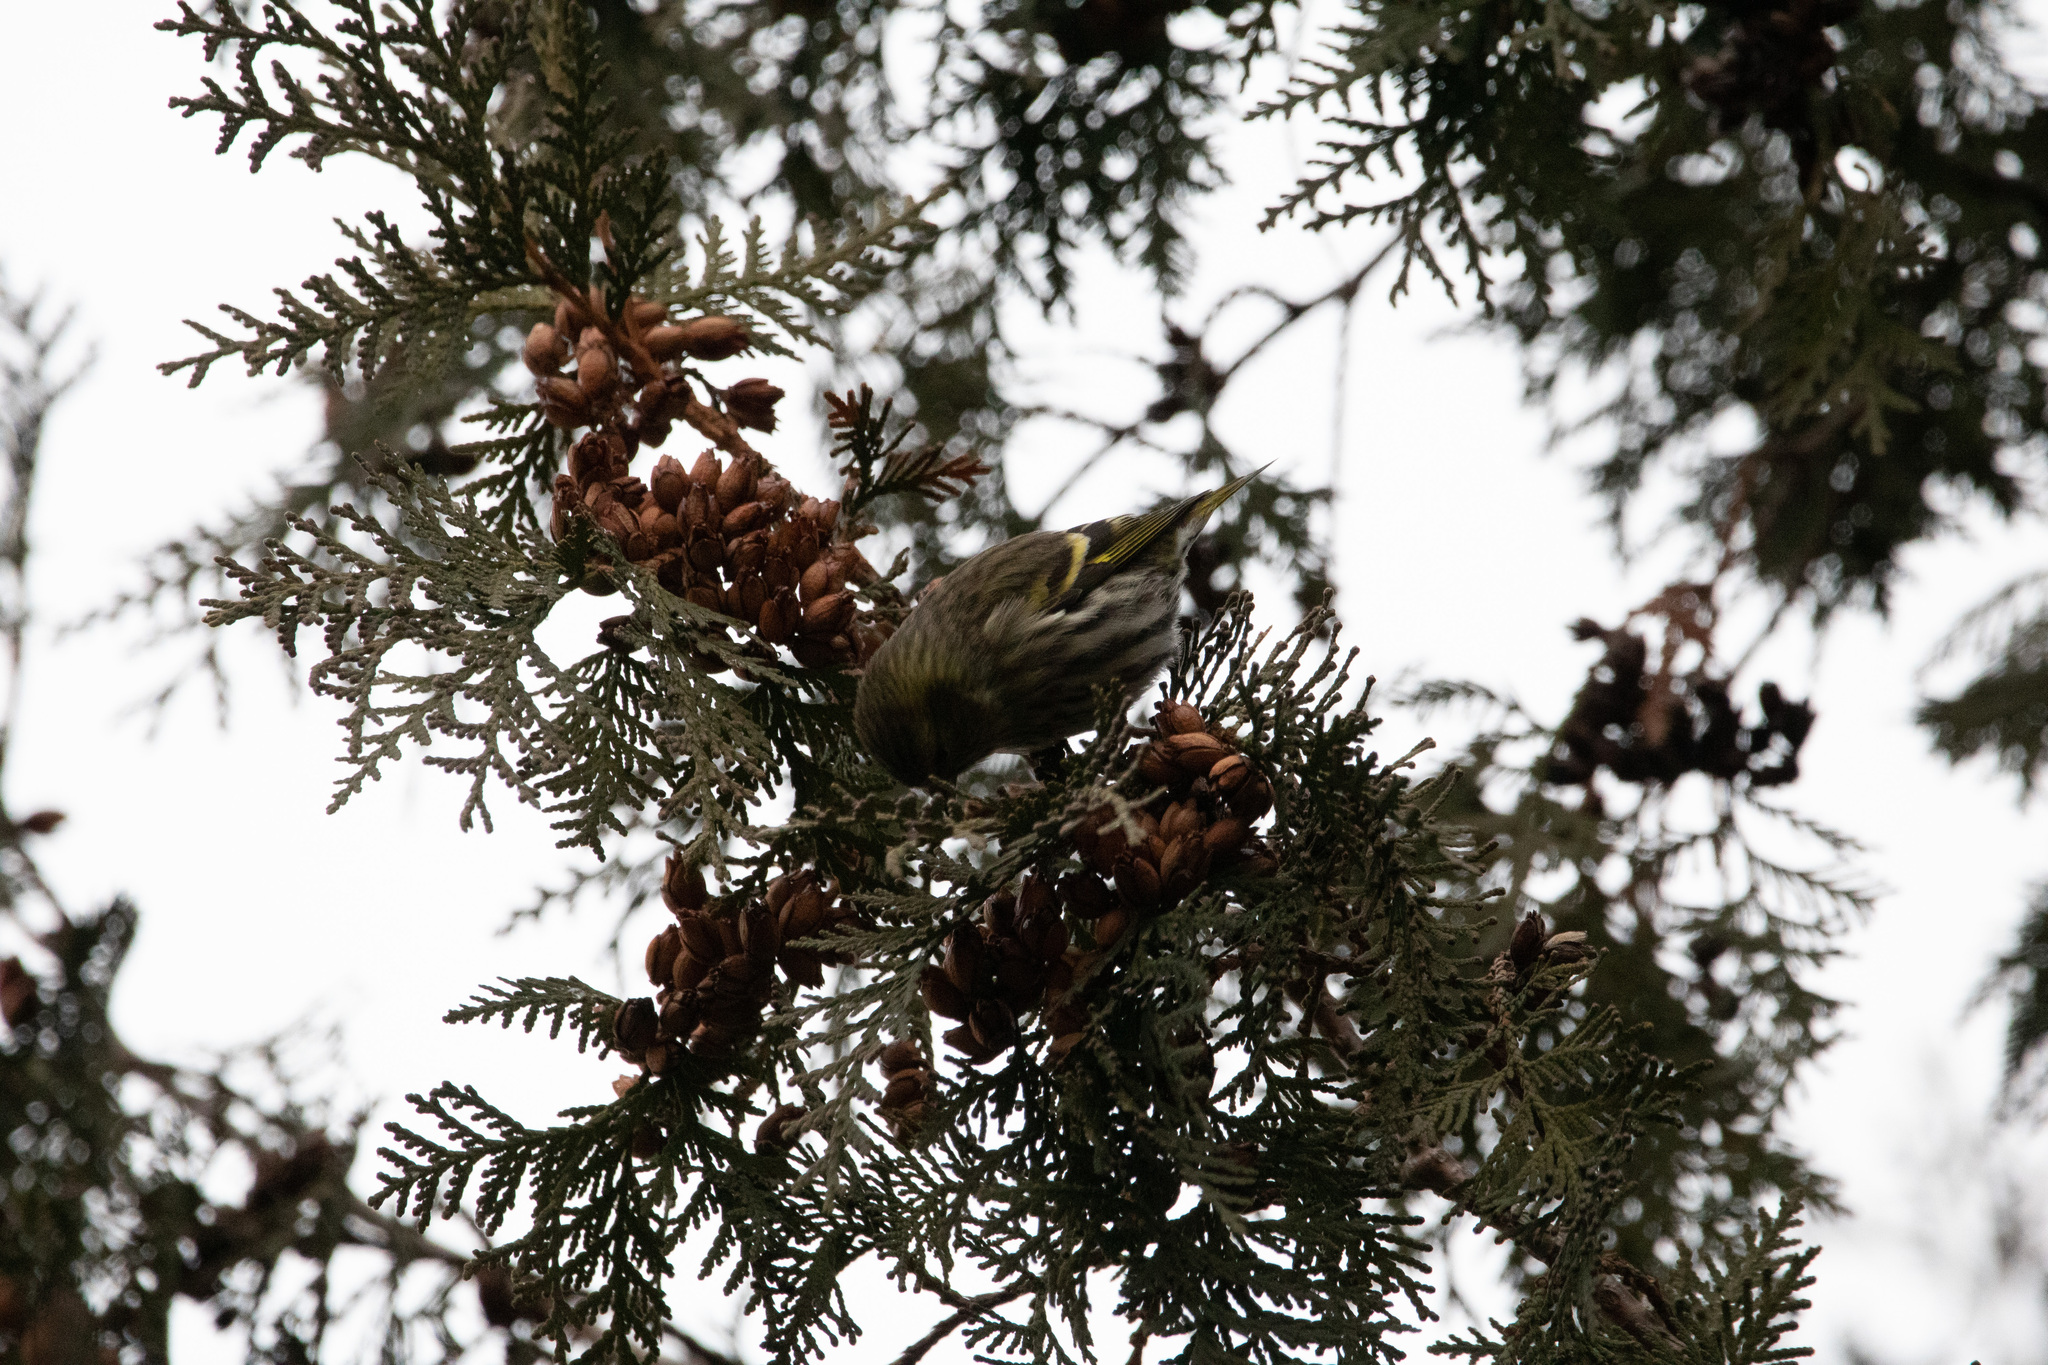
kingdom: Animalia
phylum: Chordata
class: Aves
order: Passeriformes
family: Fringillidae
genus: Spinus
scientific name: Spinus spinus
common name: Eurasian siskin
